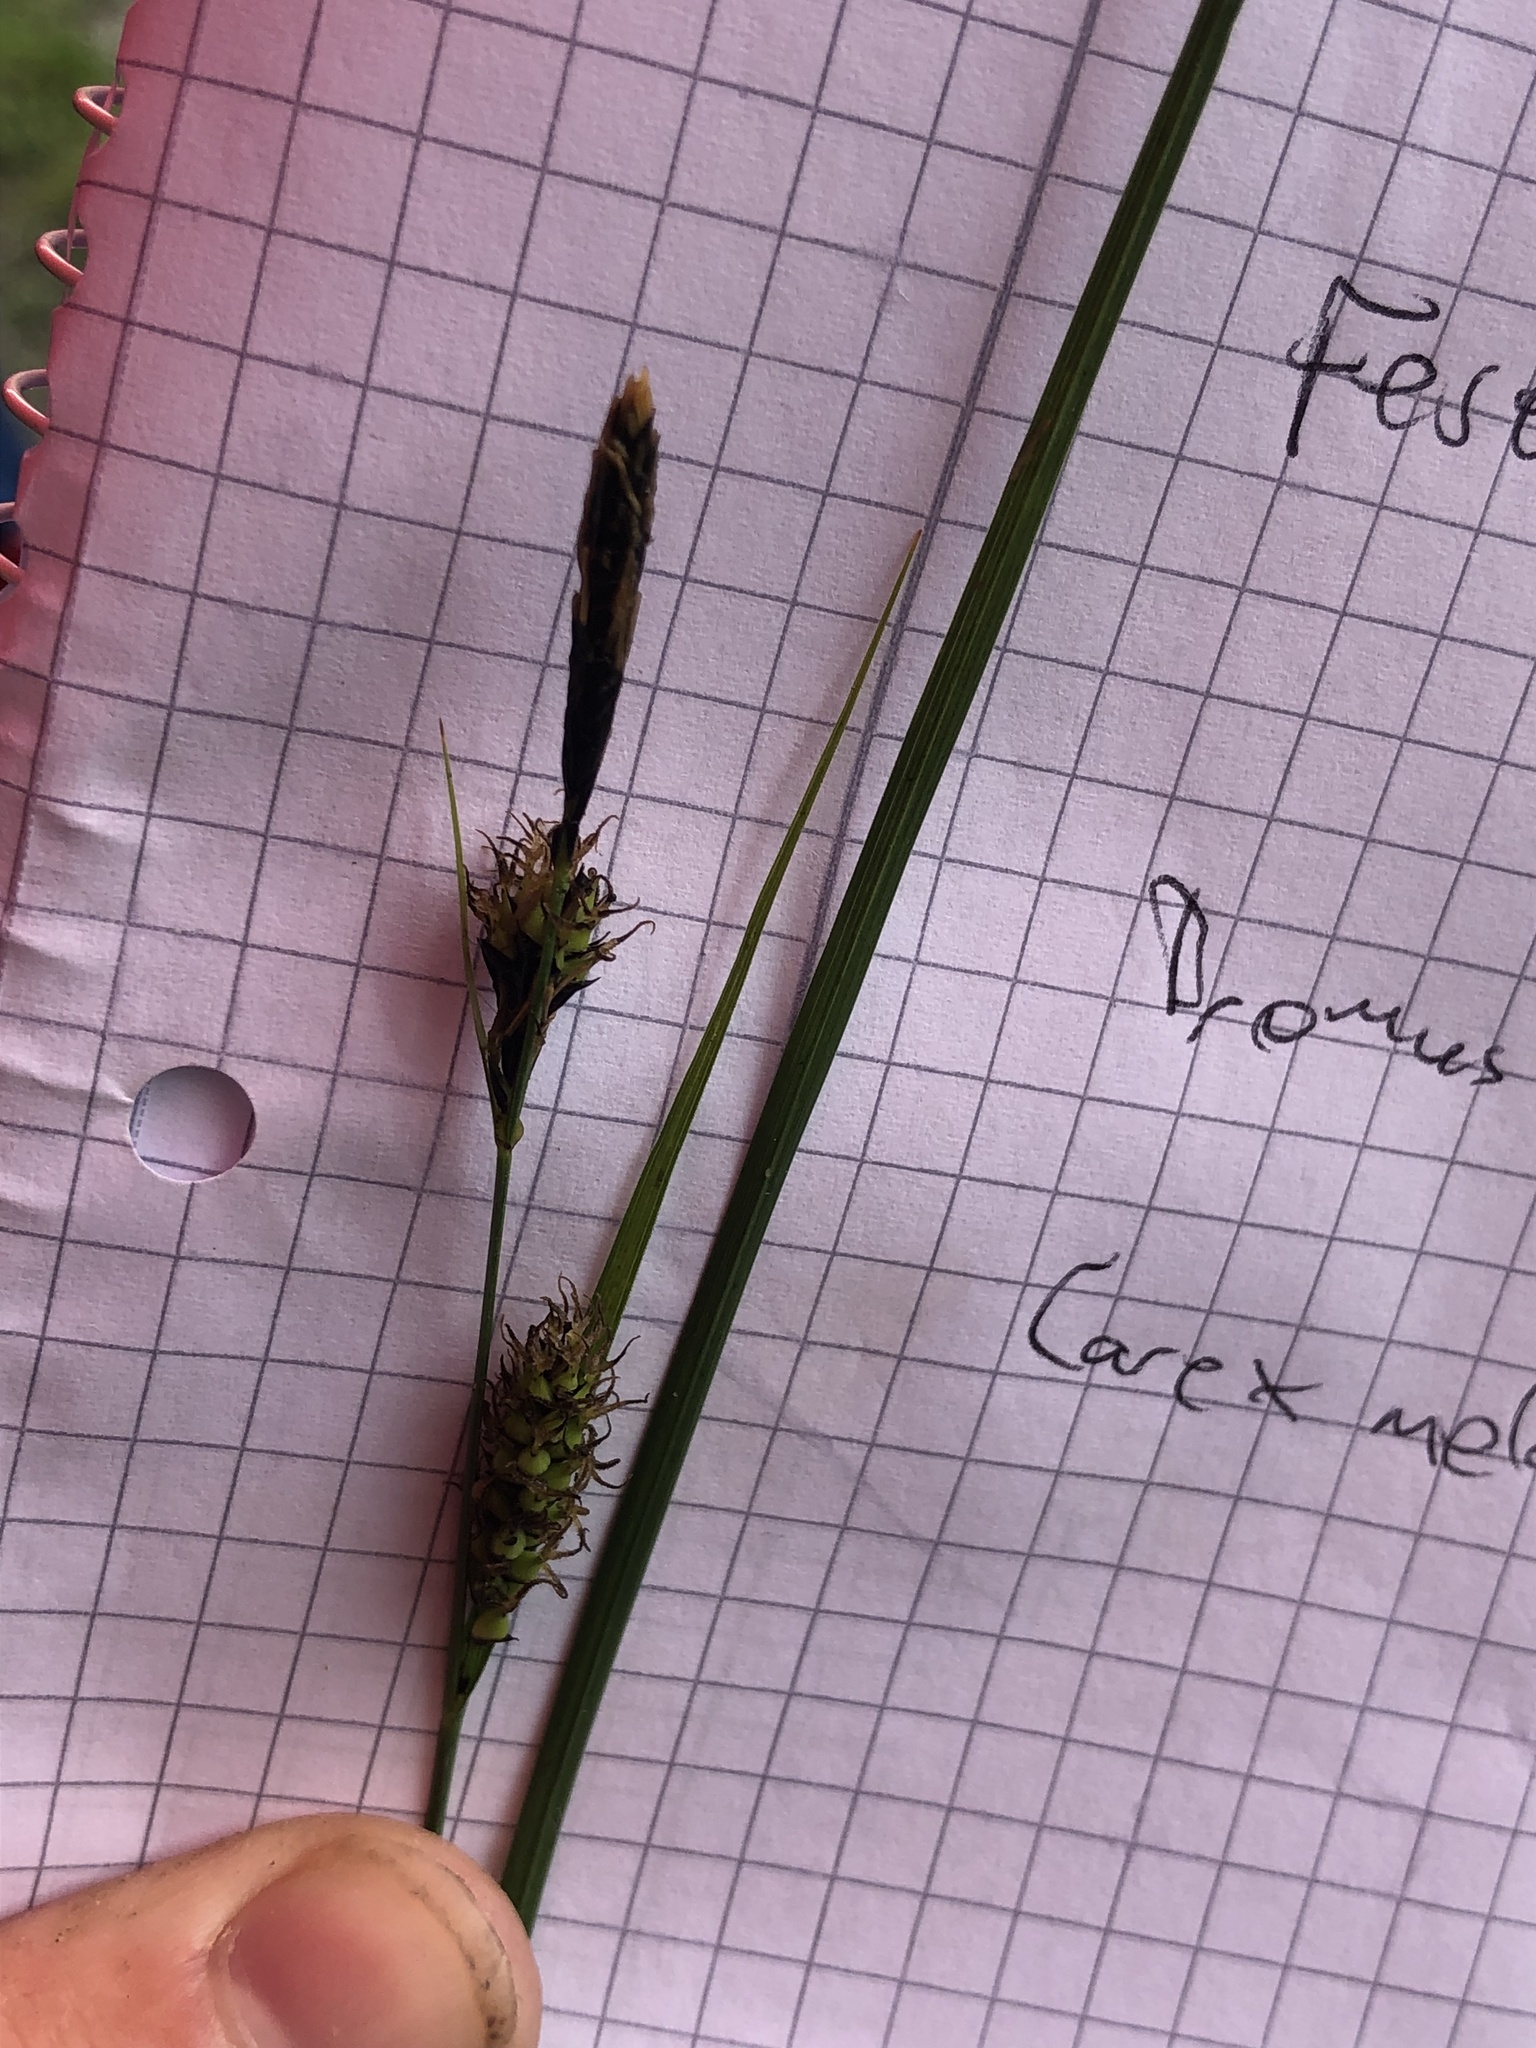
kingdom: Plantae
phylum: Tracheophyta
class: Liliopsida
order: Poales
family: Cyperaceae
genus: Carex
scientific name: Carex melanostachya
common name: Black-spiked sedge
